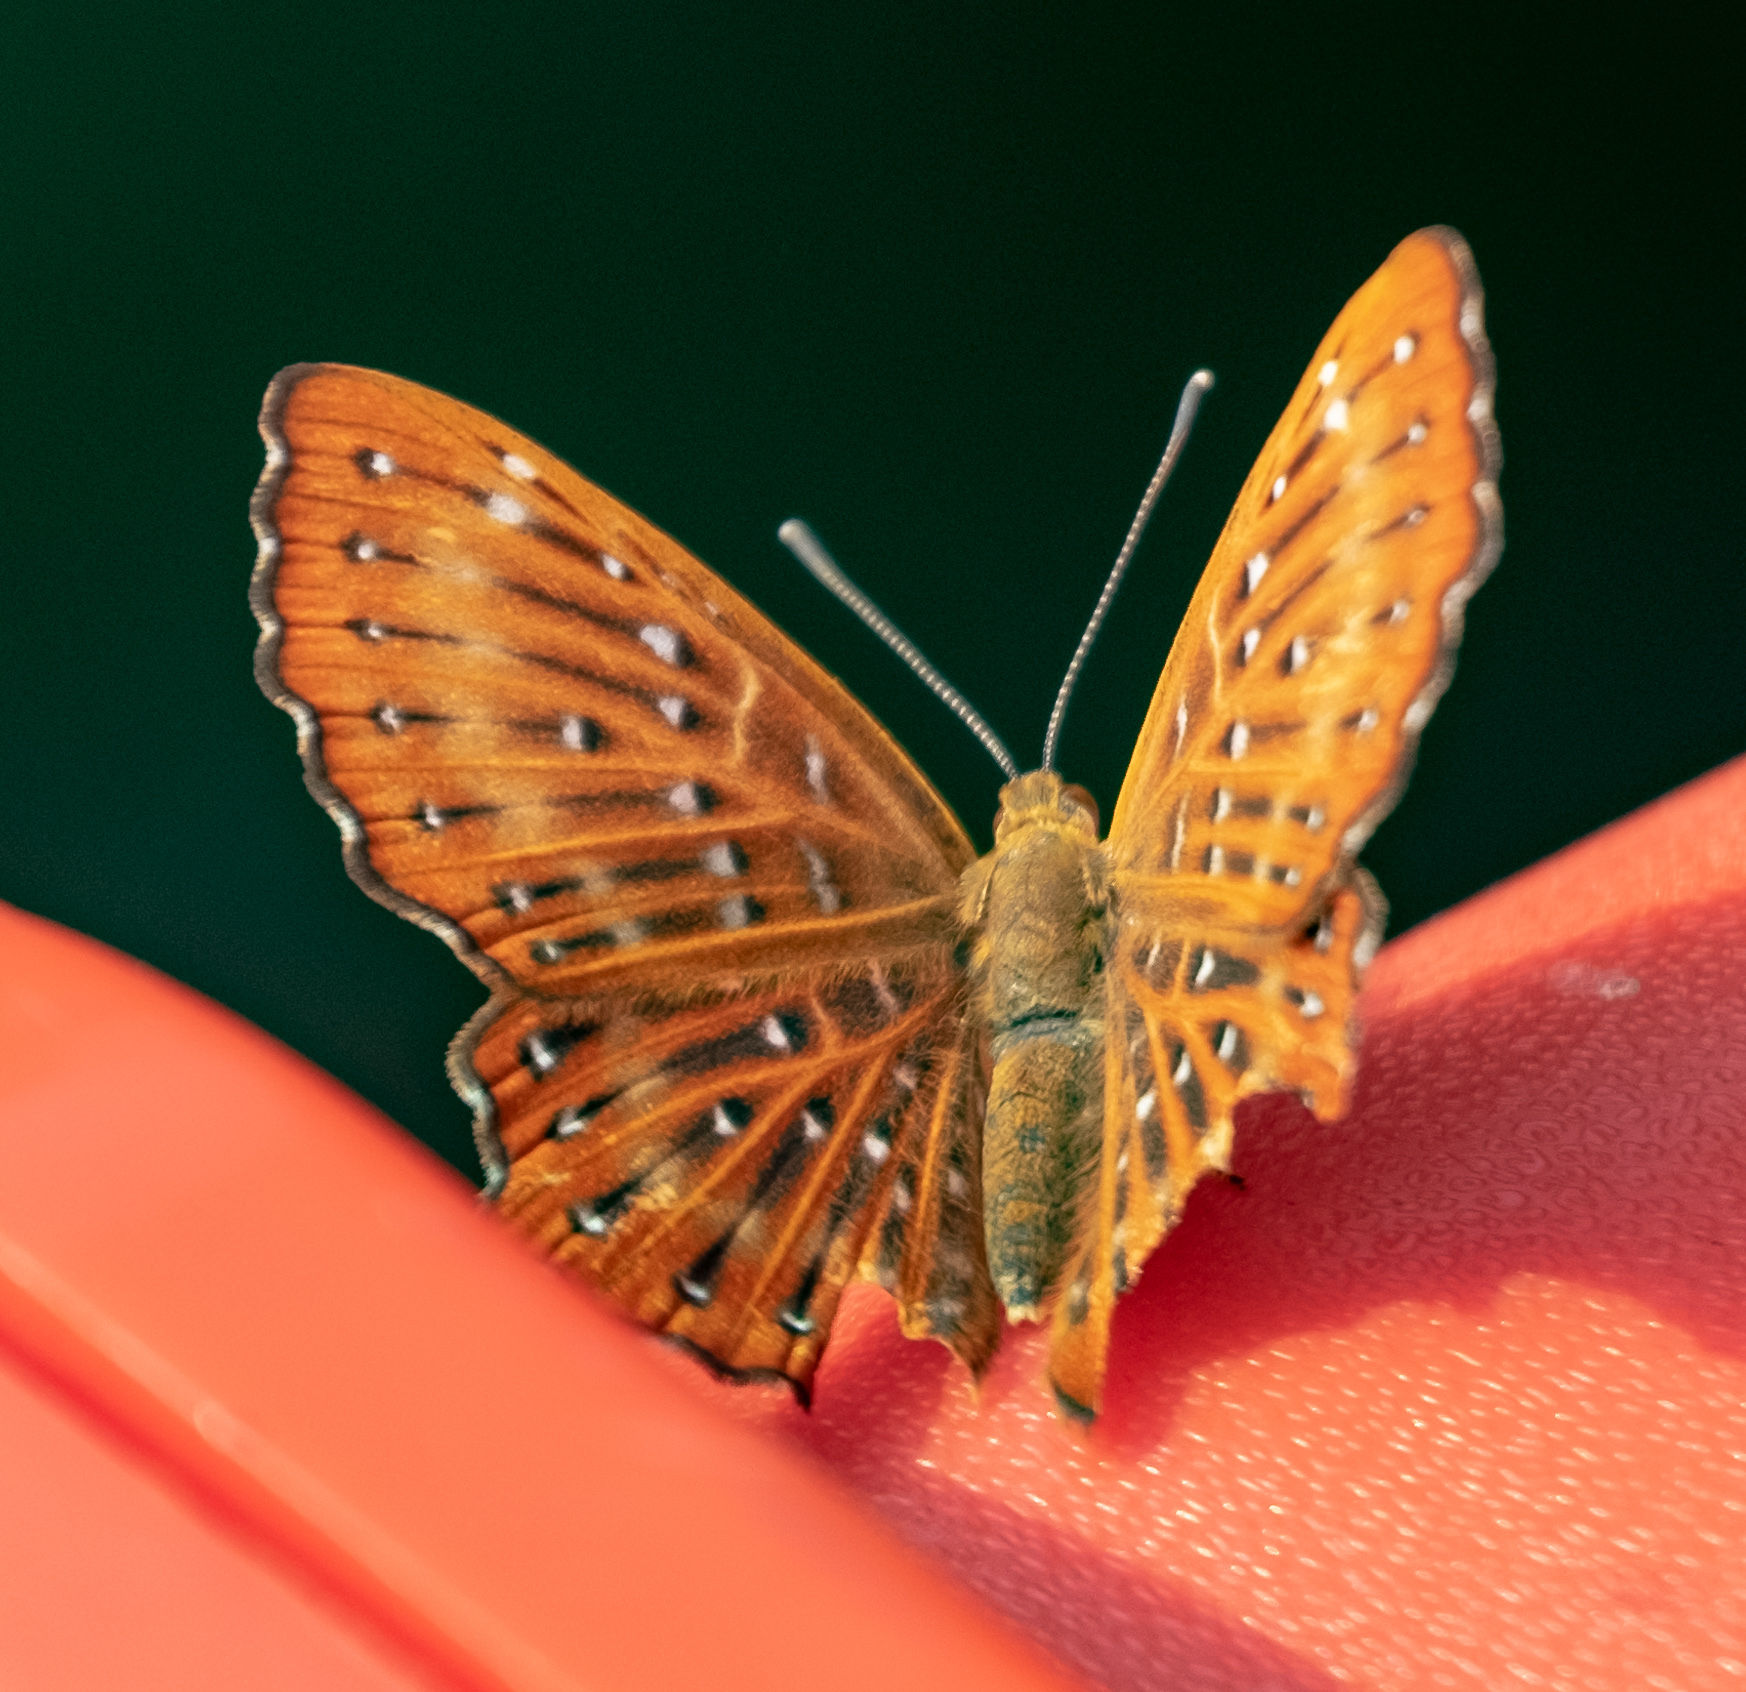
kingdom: Animalia
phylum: Arthropoda
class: Insecta
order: Lepidoptera
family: Riodinidae
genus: Zemeros
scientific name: Zemeros flegyas
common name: Punchinello
